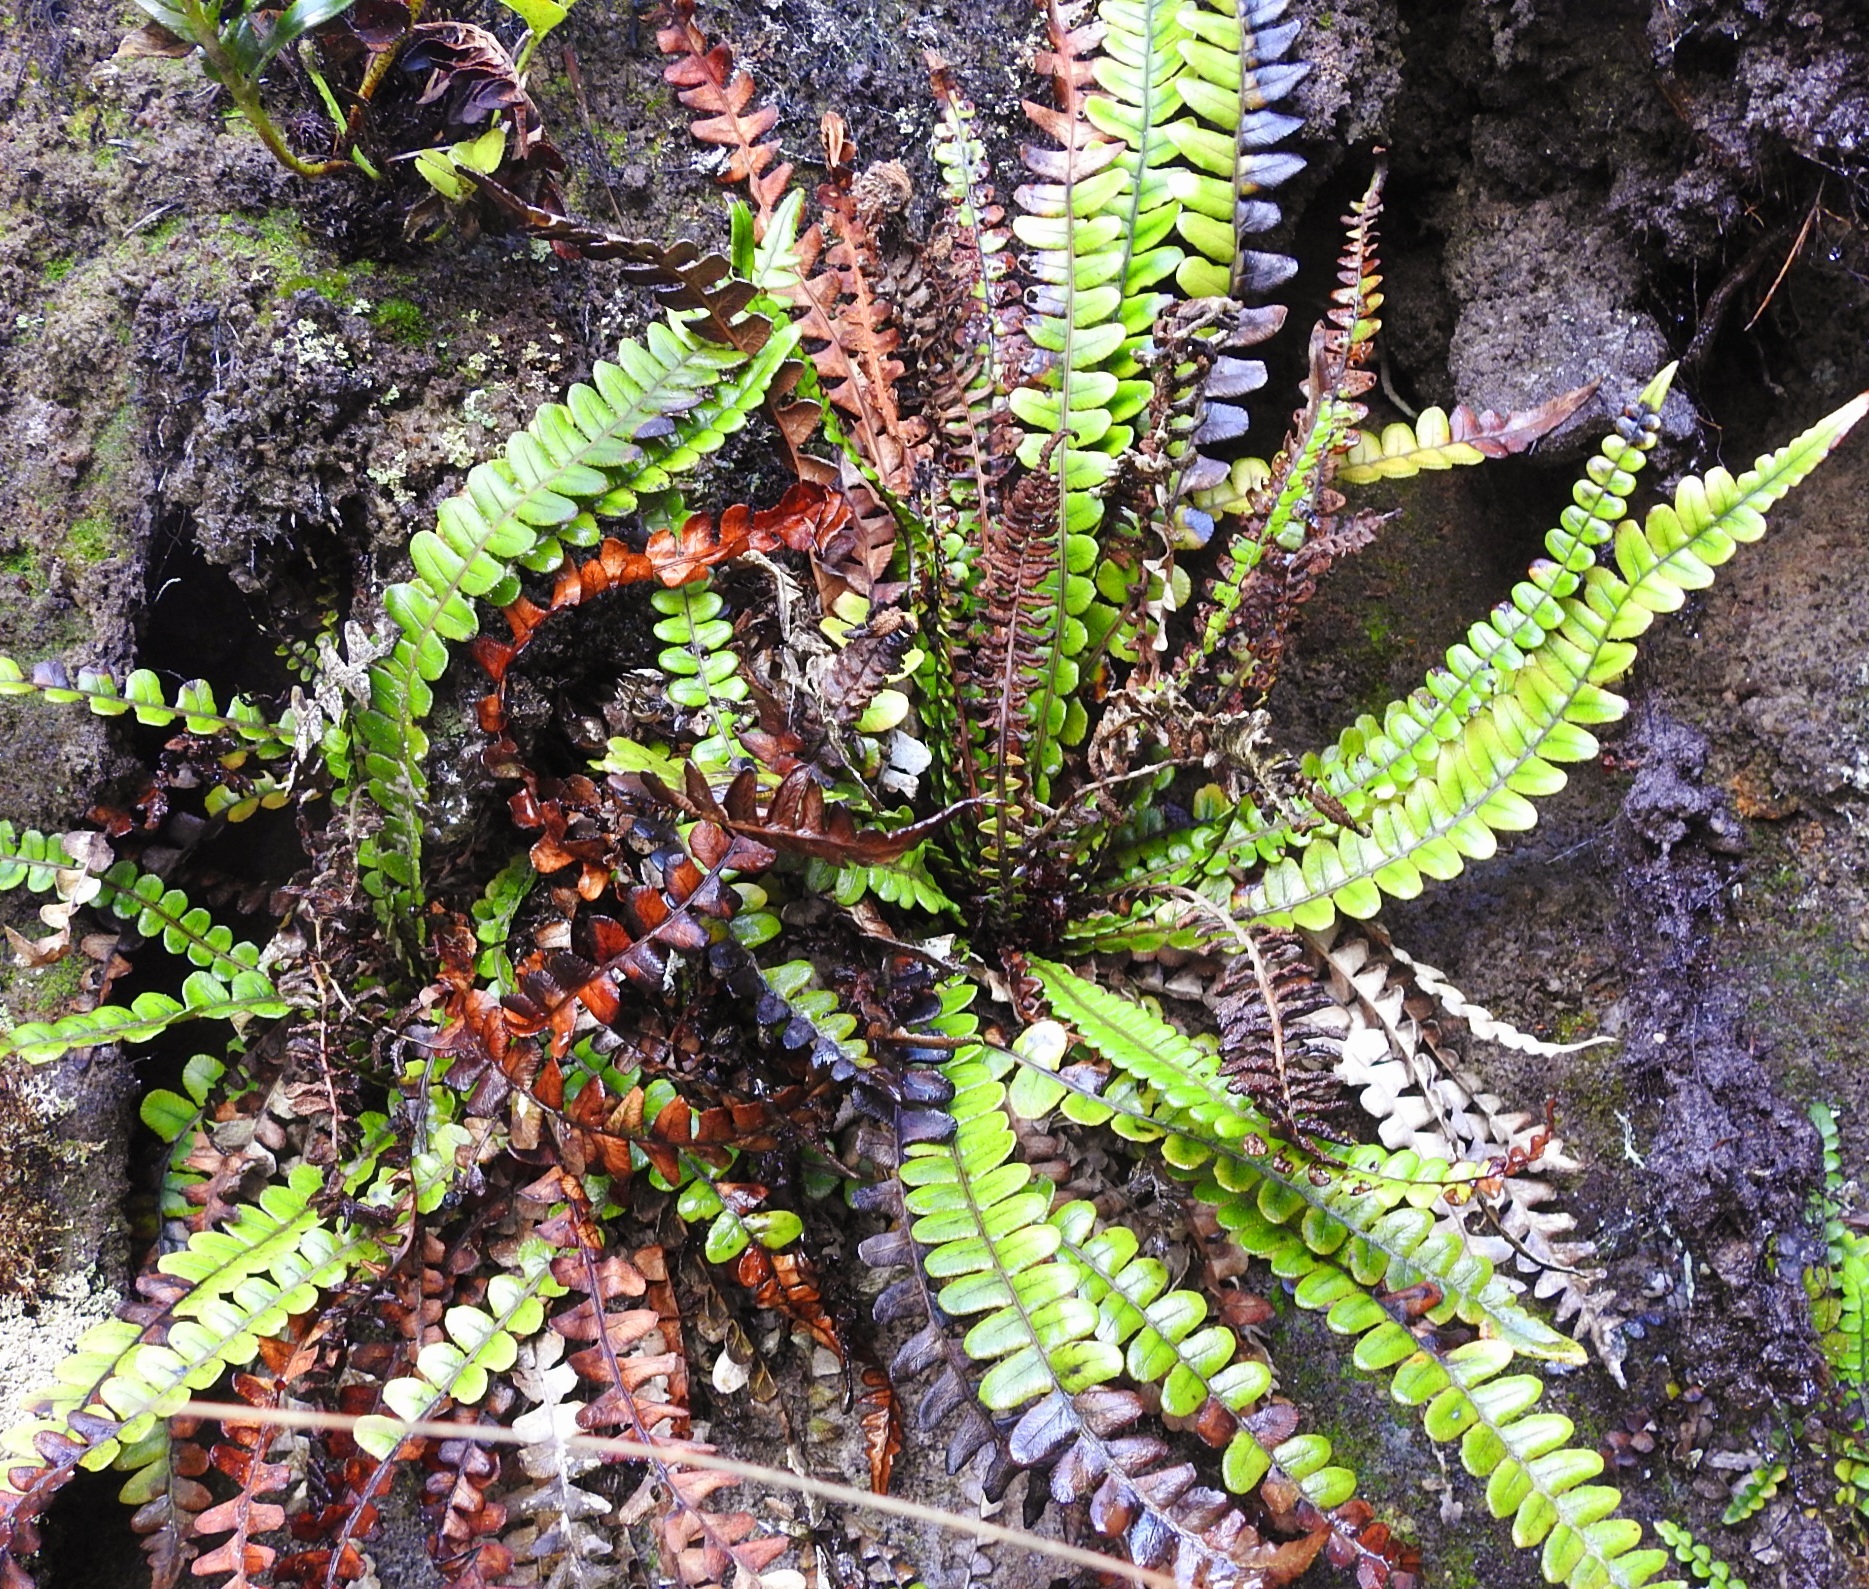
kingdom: Plantae
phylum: Tracheophyta
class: Polypodiopsida
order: Polypodiales
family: Blechnaceae
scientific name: Blechnaceae
